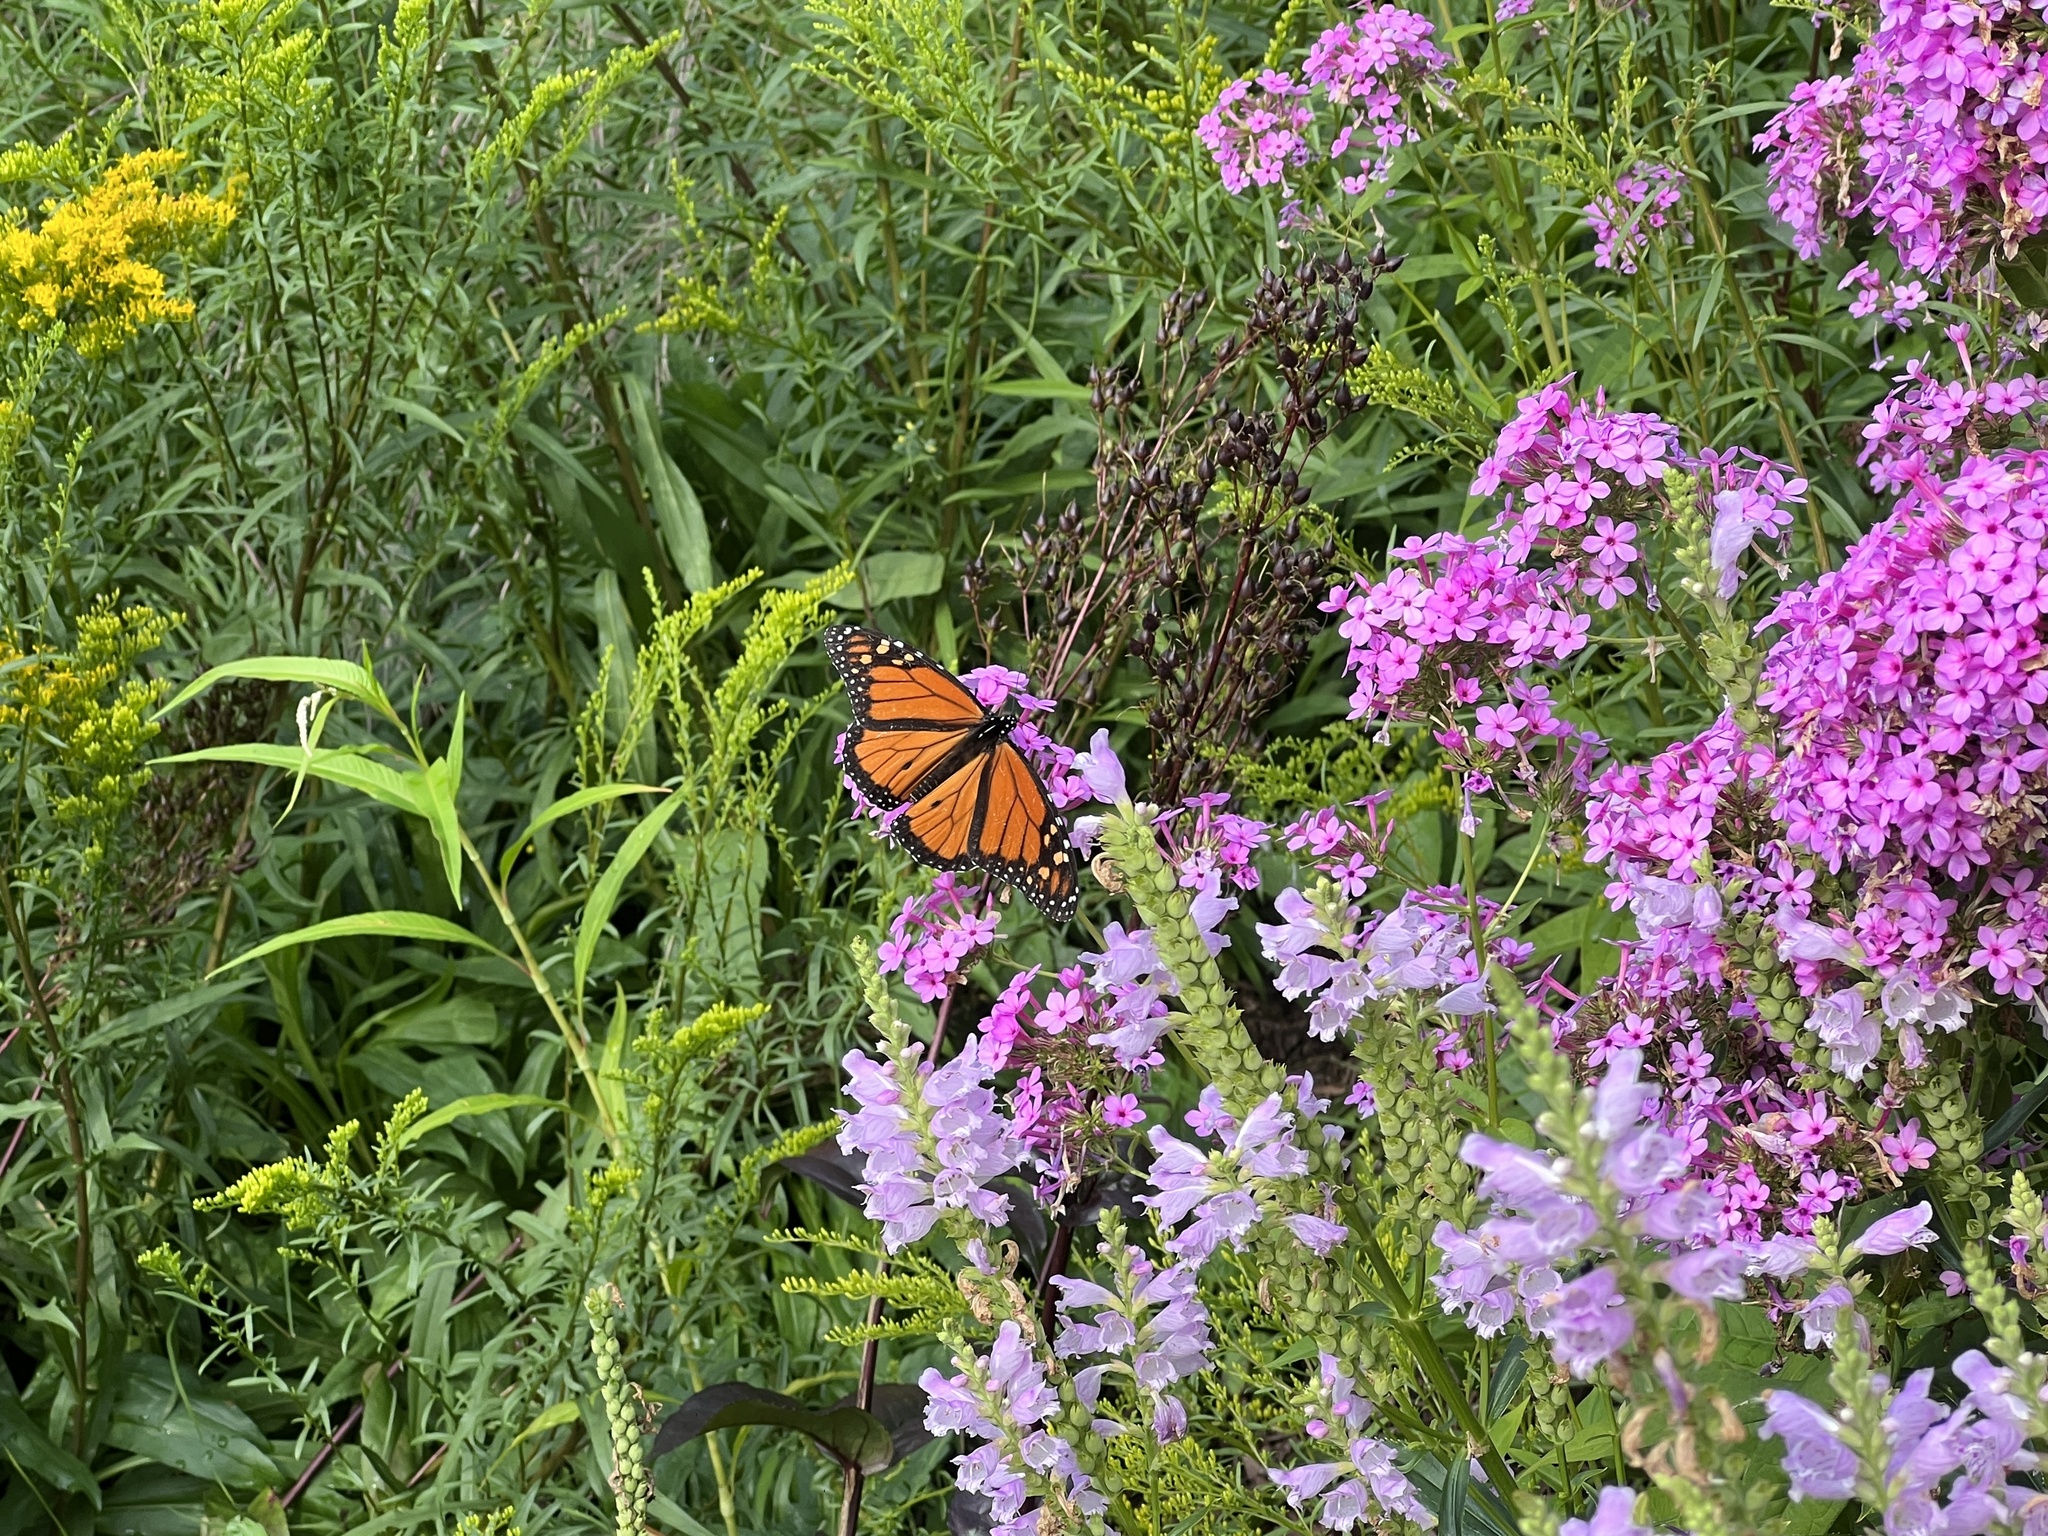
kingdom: Animalia
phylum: Arthropoda
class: Insecta
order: Lepidoptera
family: Nymphalidae
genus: Danaus
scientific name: Danaus plexippus
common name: Monarch
